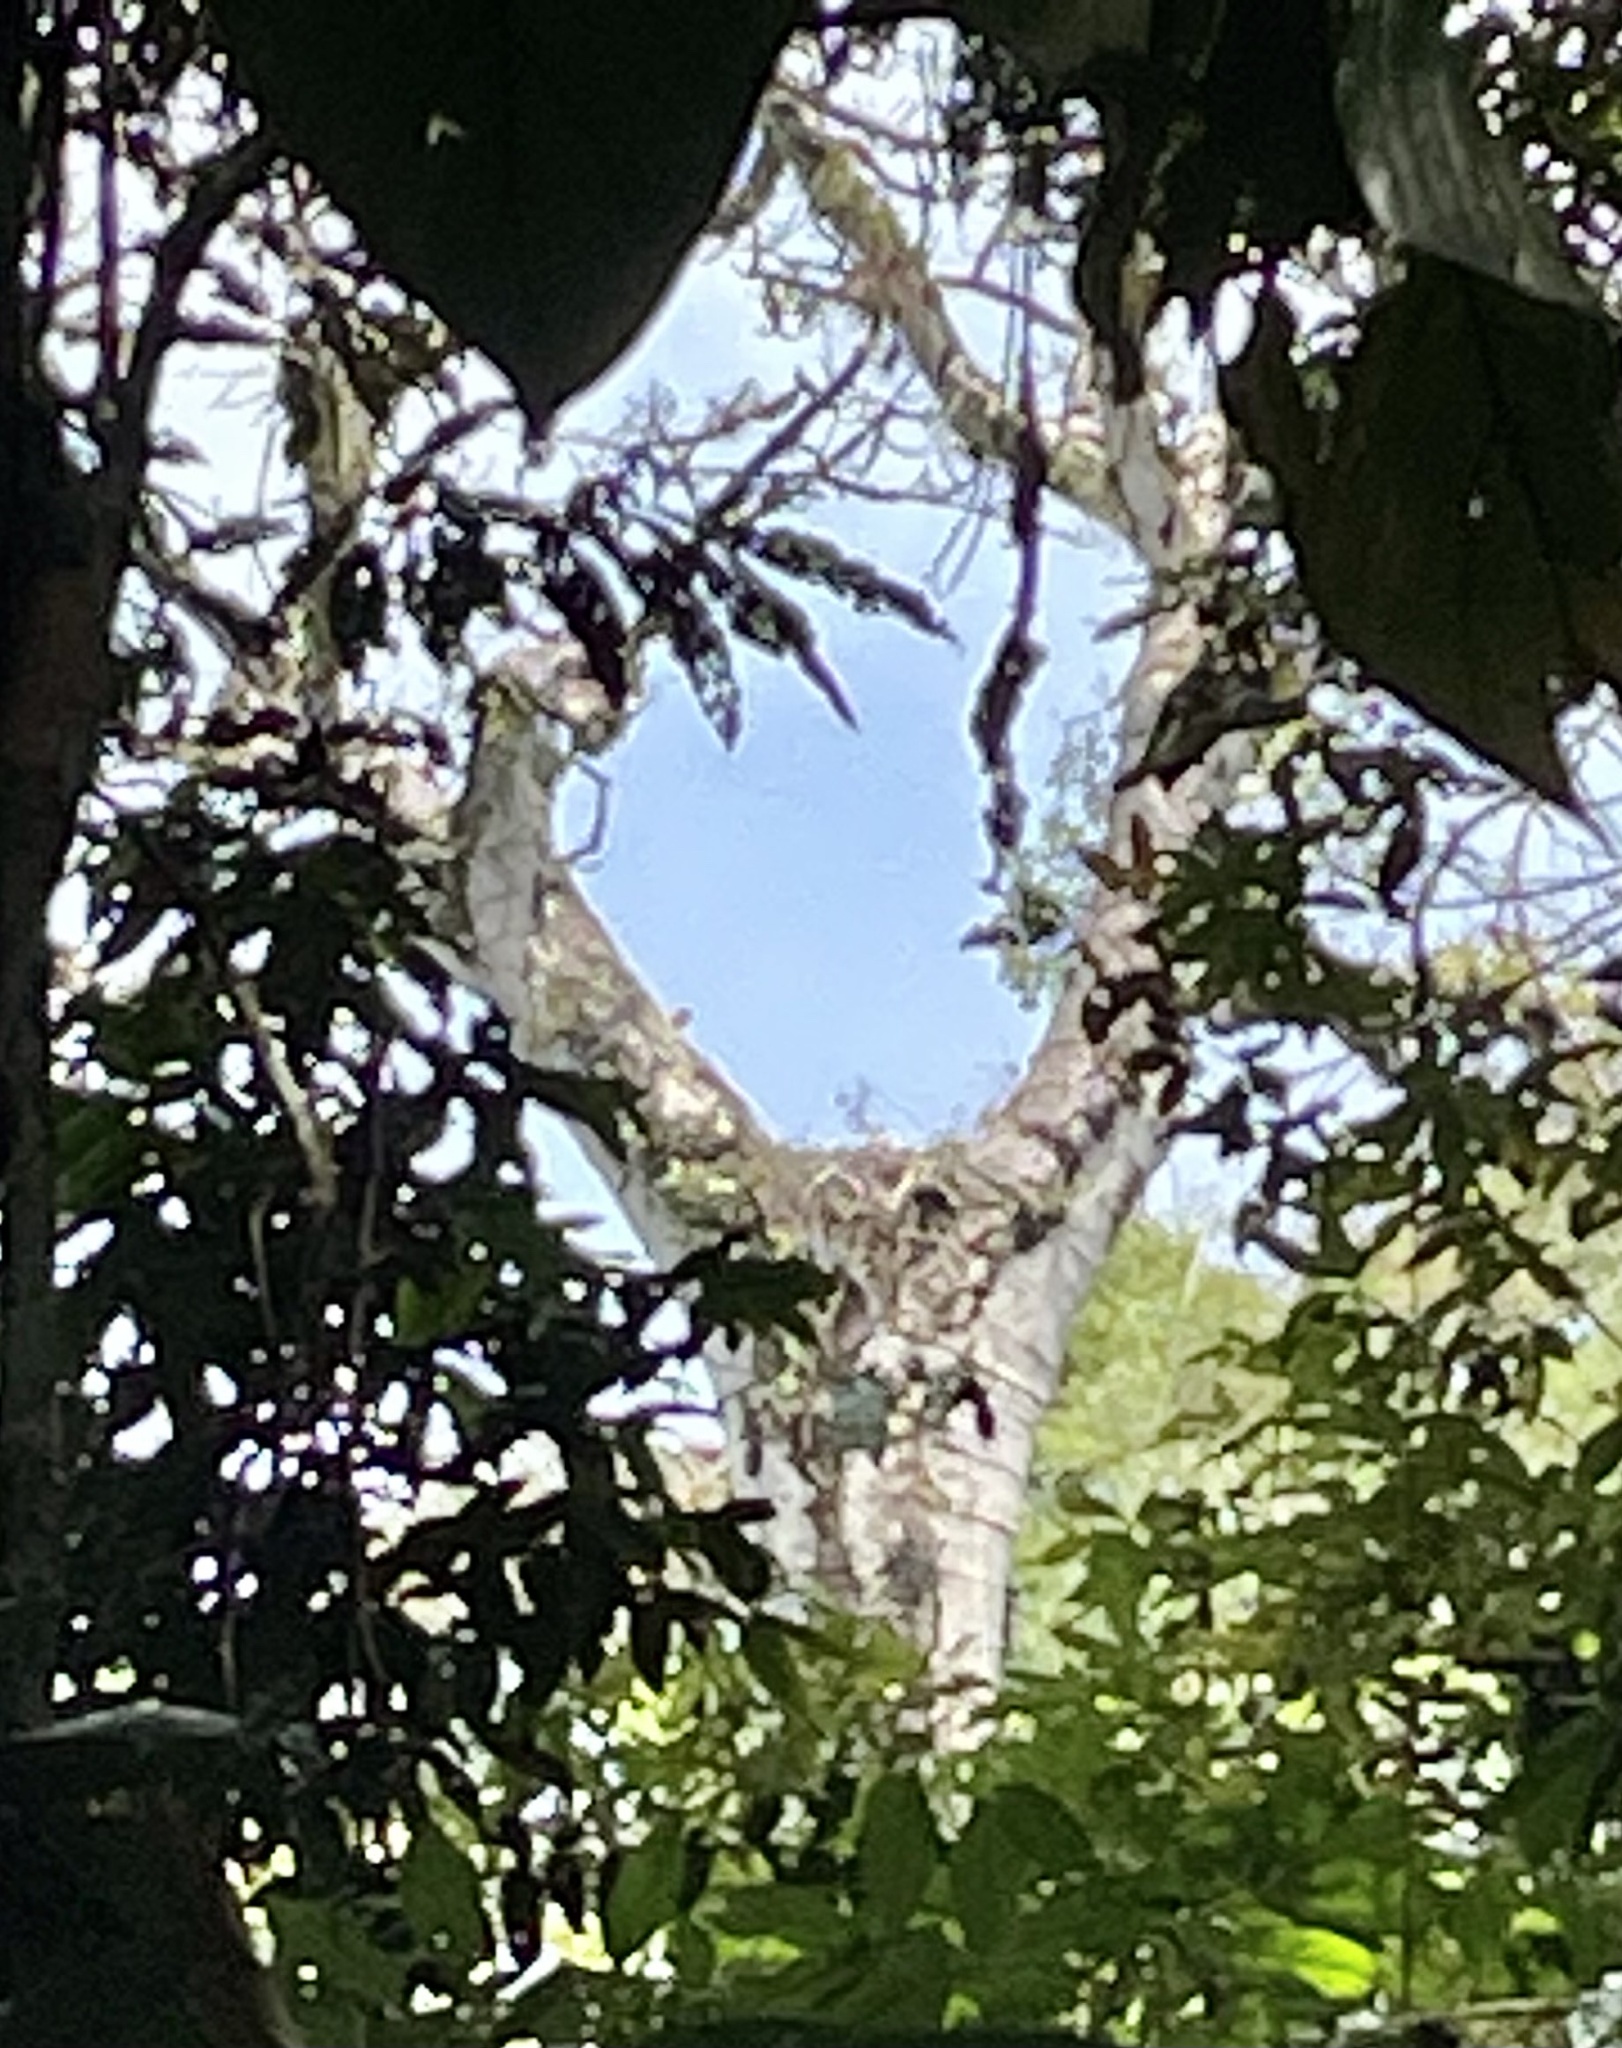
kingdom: Animalia
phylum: Chordata
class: Aves
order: Accipitriformes
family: Accipitridae
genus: Harpia
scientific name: Harpia harpyja
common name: Harpy eagle
